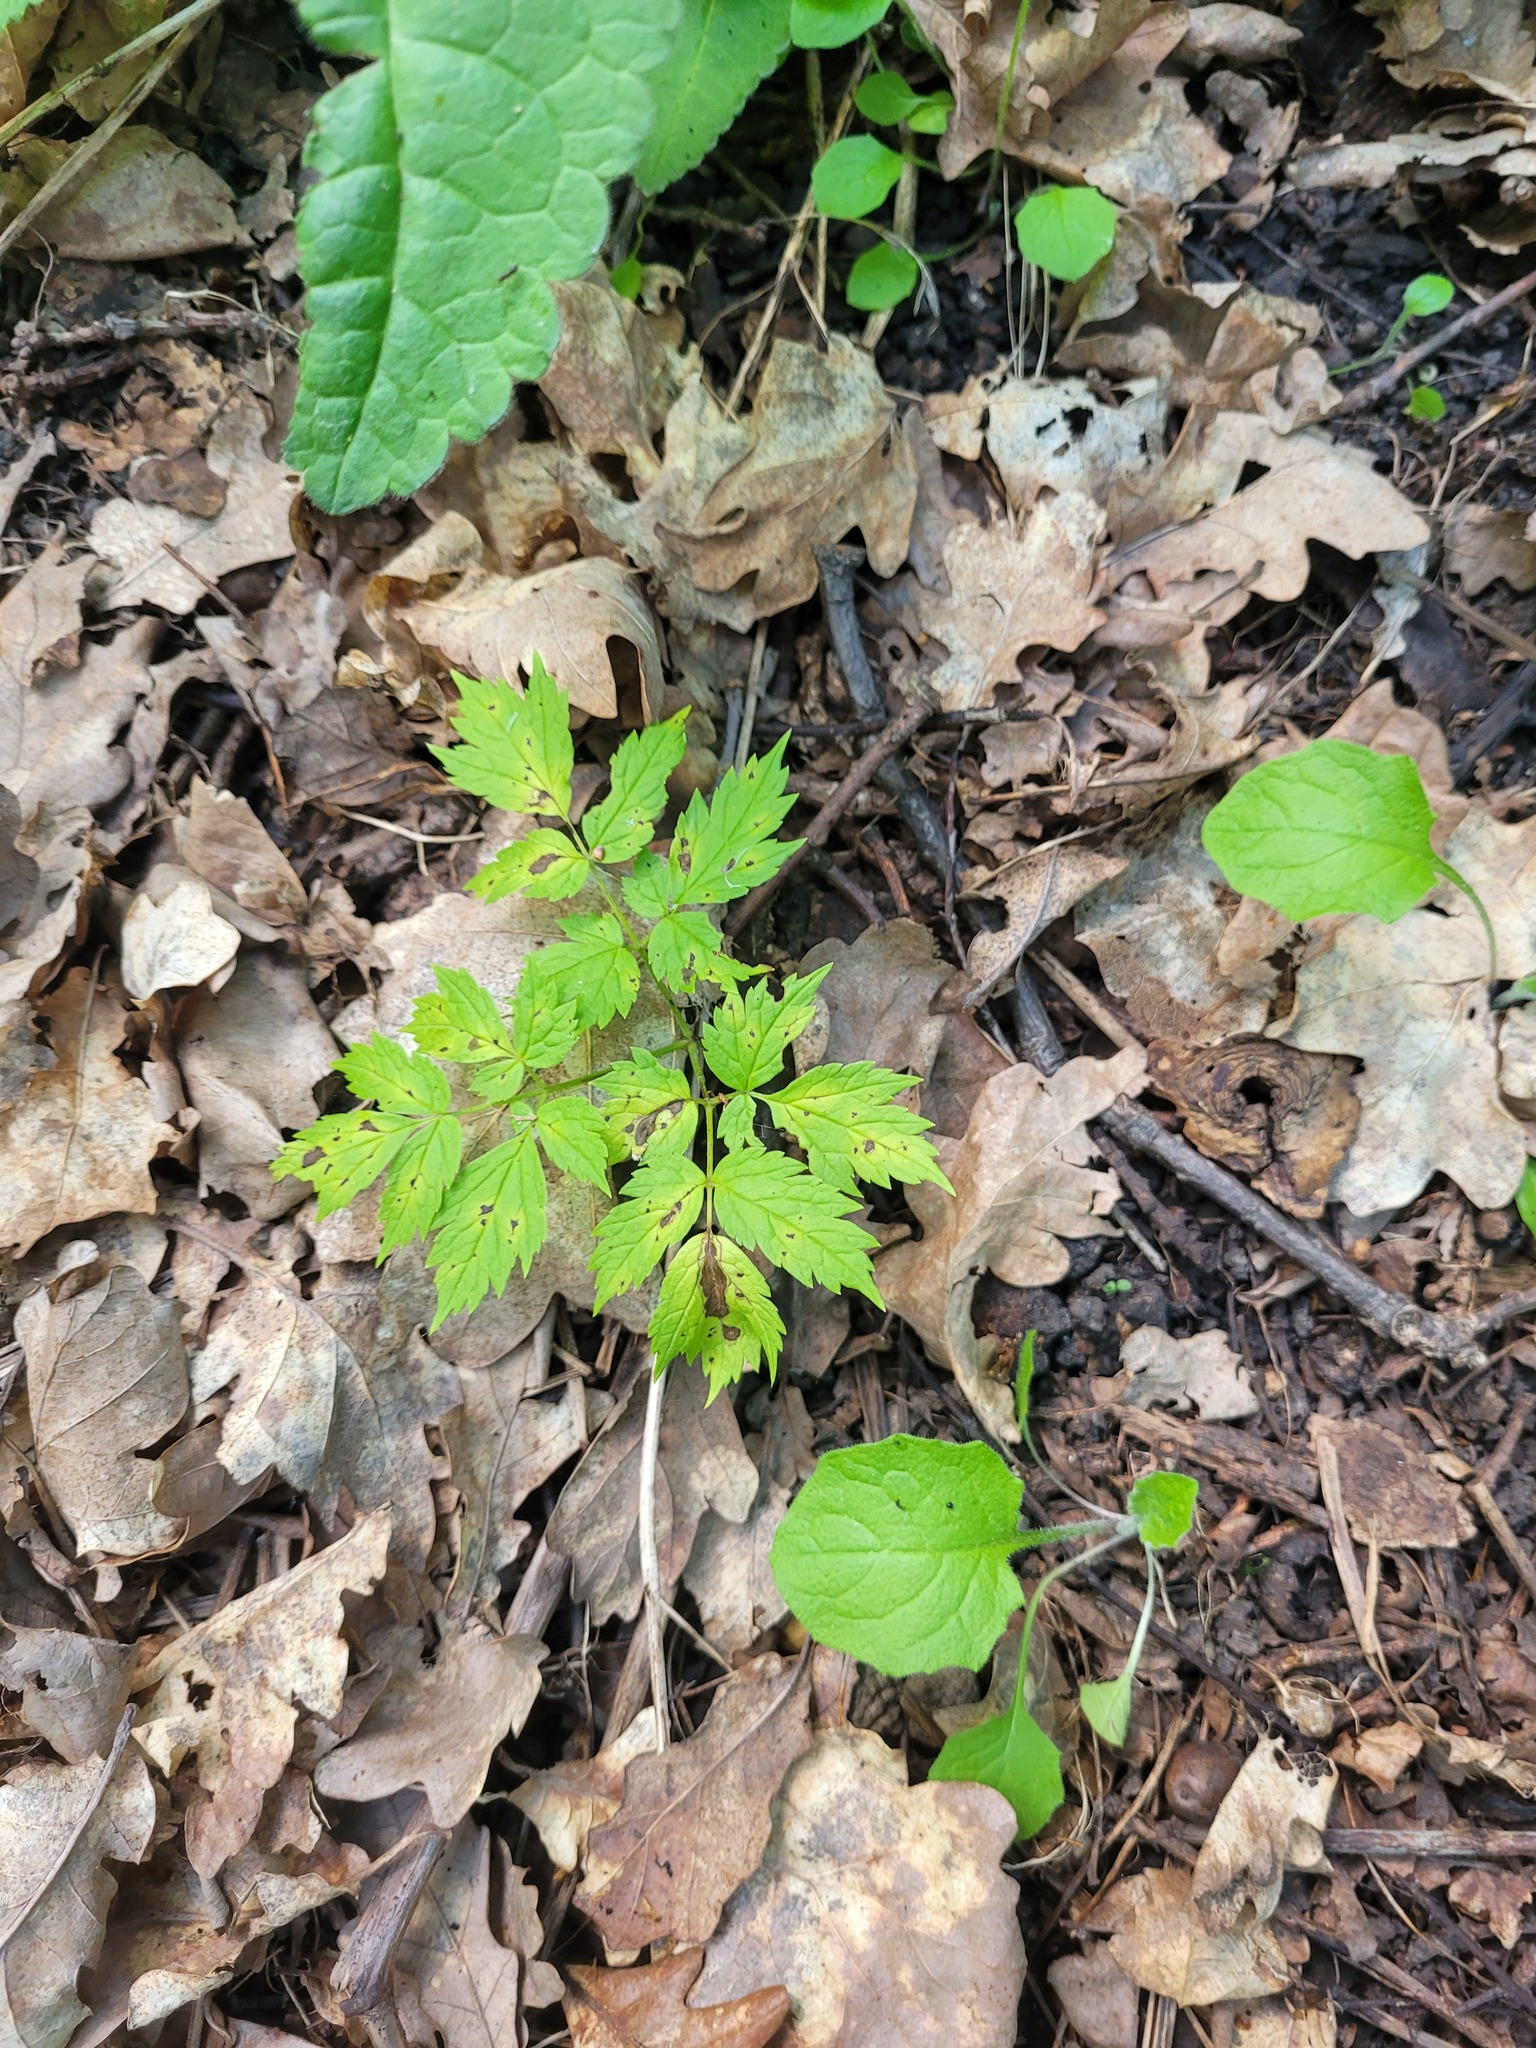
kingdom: Plantae
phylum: Tracheophyta
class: Magnoliopsida
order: Ranunculales
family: Ranunculaceae
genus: Actaea
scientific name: Actaea spicata
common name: Baneberry
